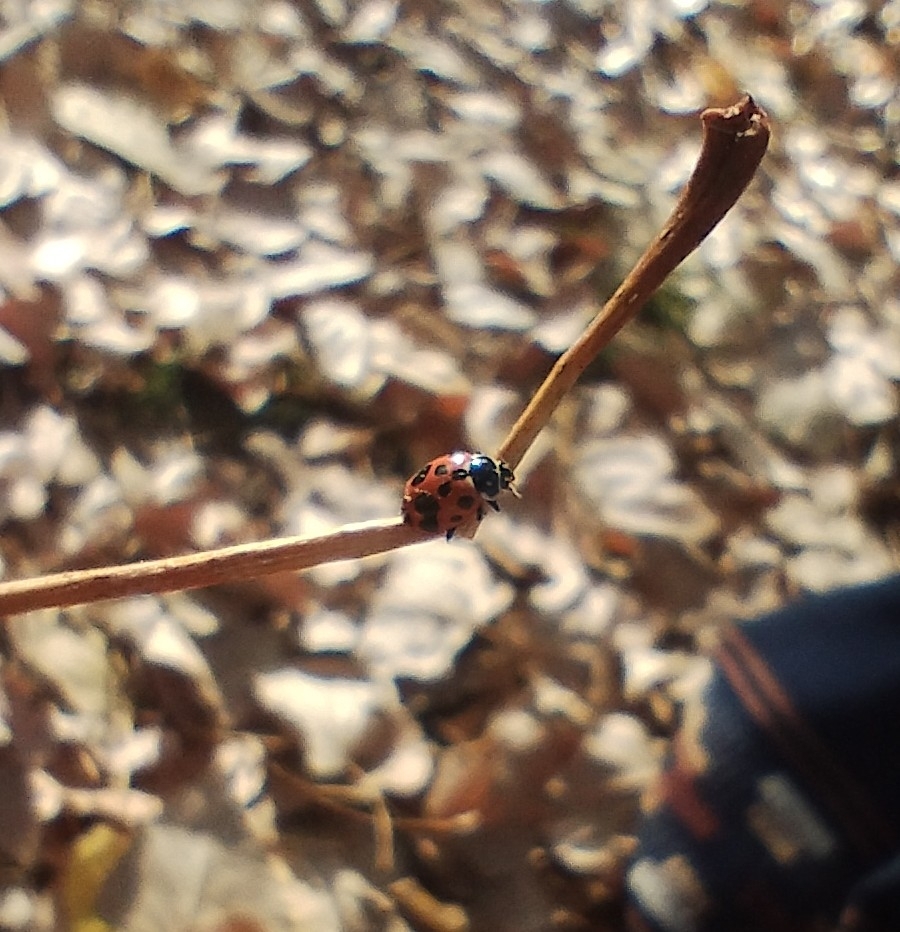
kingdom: Animalia
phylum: Arthropoda
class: Insecta
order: Coleoptera
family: Coccinellidae
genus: Hippodamia
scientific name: Hippodamia variegata
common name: Ladybird beetle
